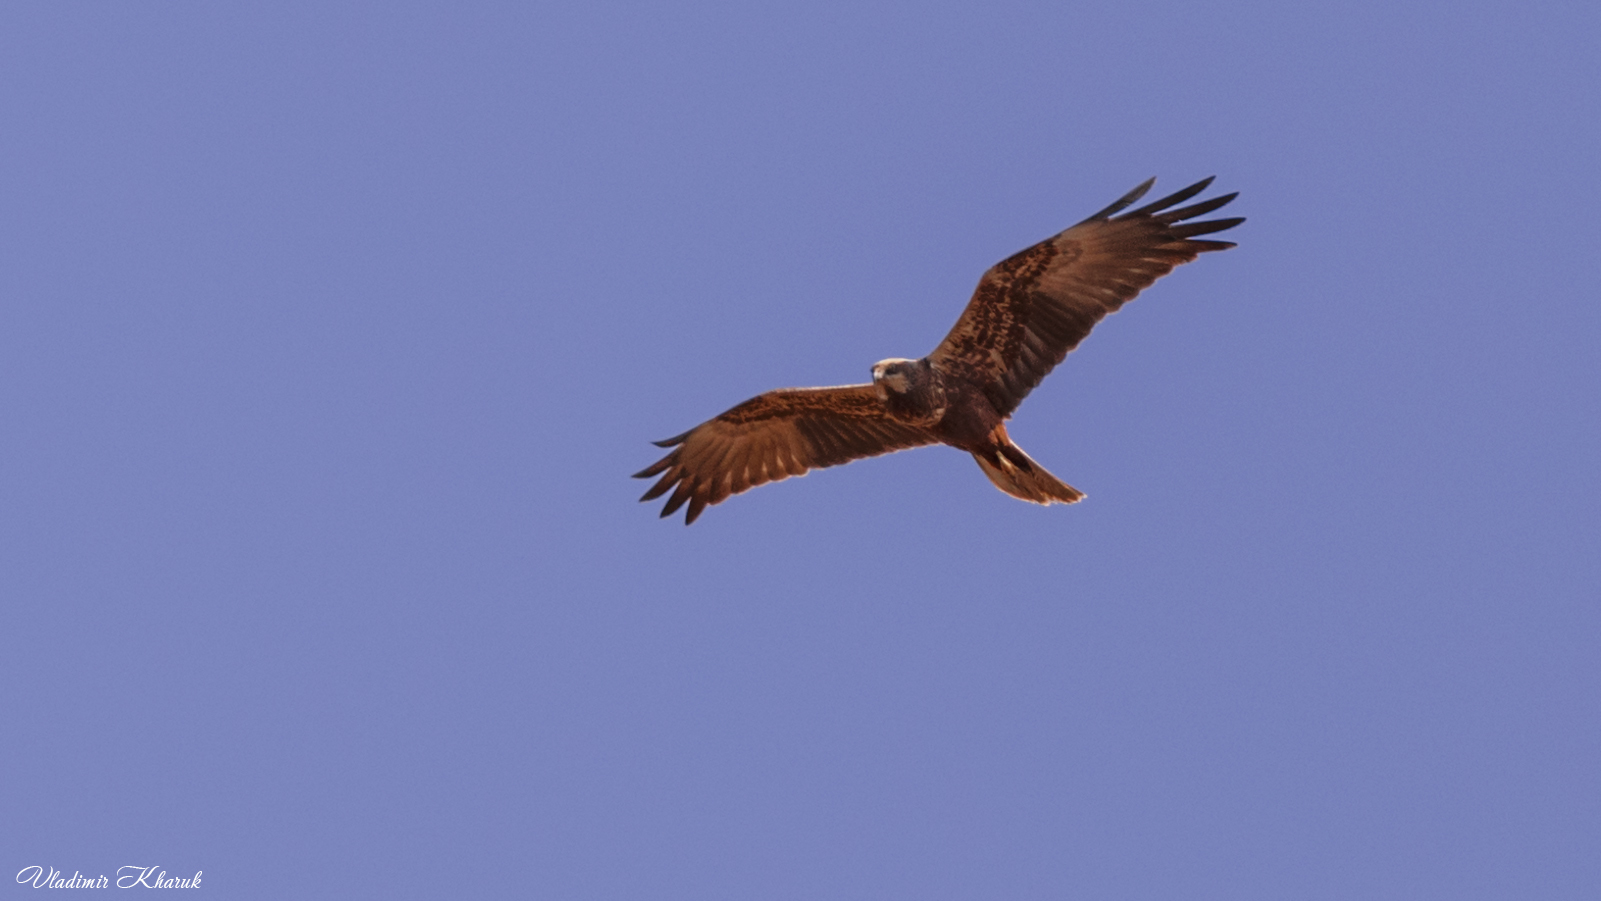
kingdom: Animalia
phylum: Chordata
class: Aves
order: Accipitriformes
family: Accipitridae
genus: Circus
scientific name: Circus aeruginosus
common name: Western marsh harrier
